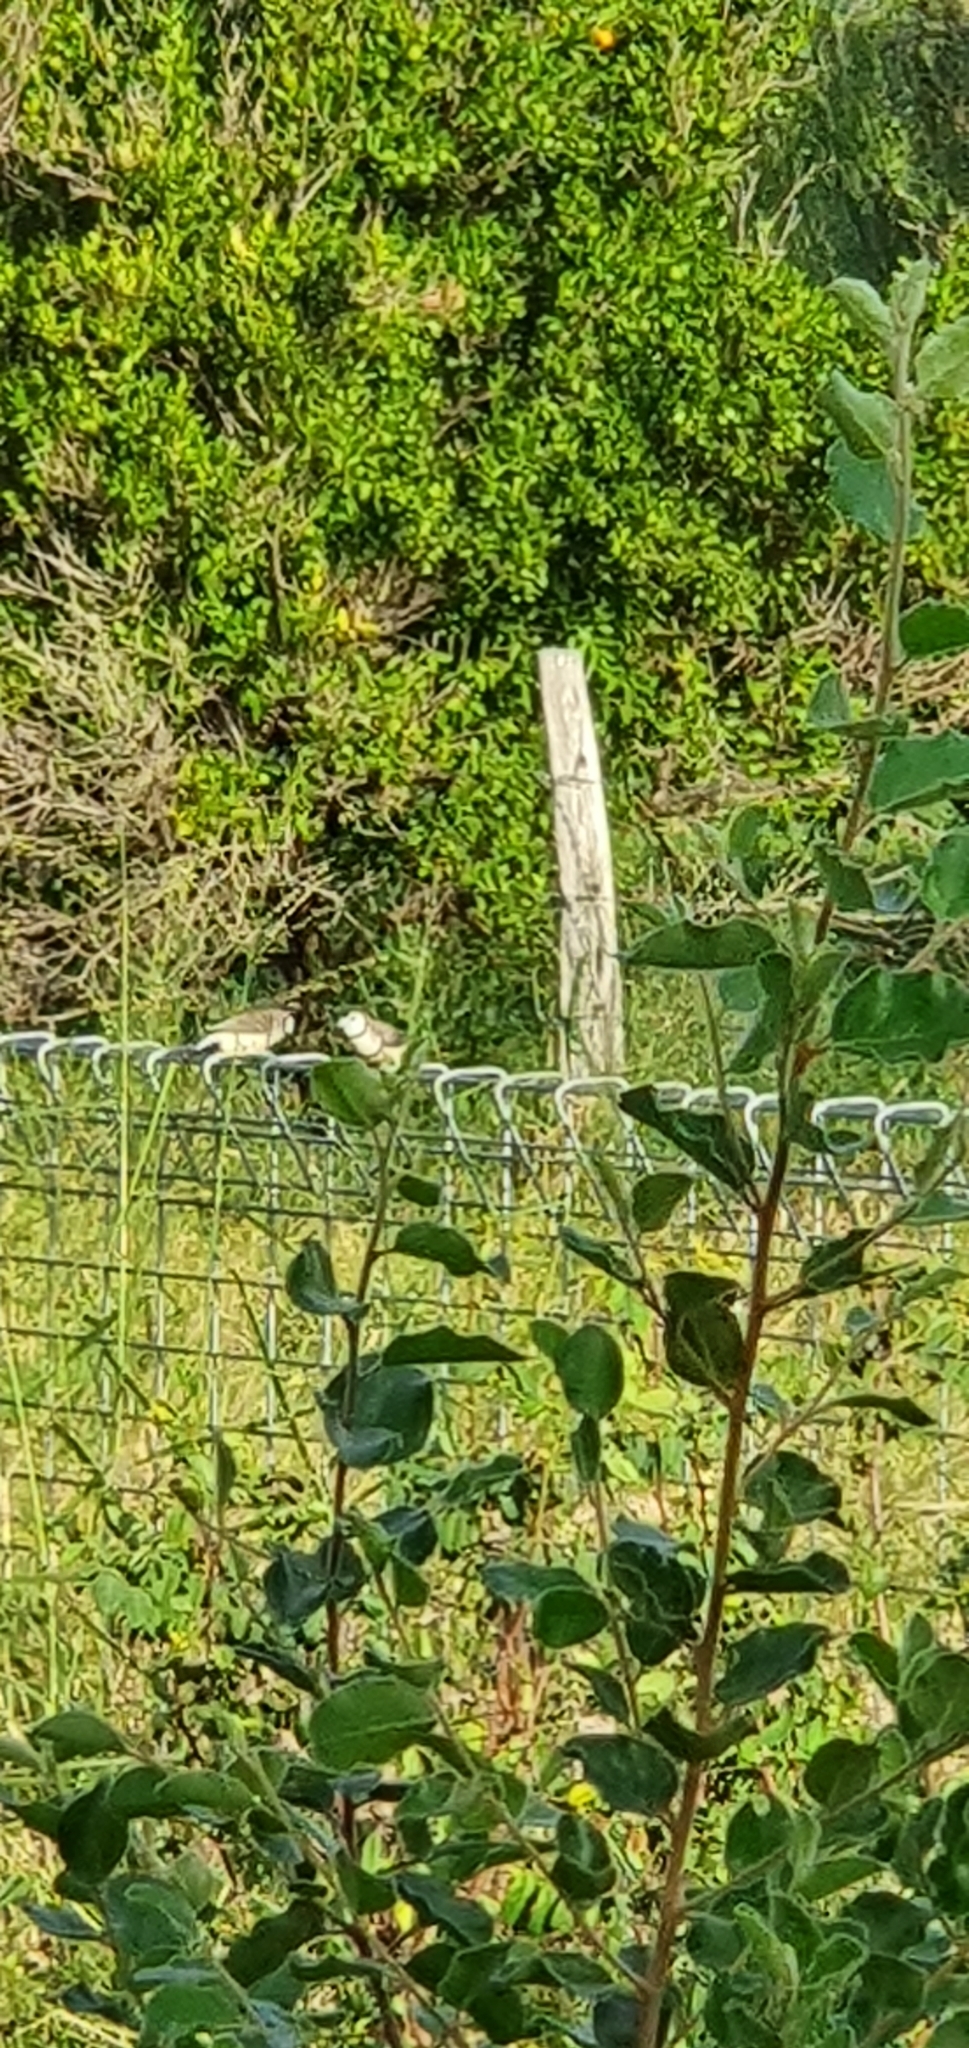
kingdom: Animalia
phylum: Chordata
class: Aves
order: Passeriformes
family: Estrildidae
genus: Taeniopygia
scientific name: Taeniopygia bichenovii
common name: Double-barred finch
